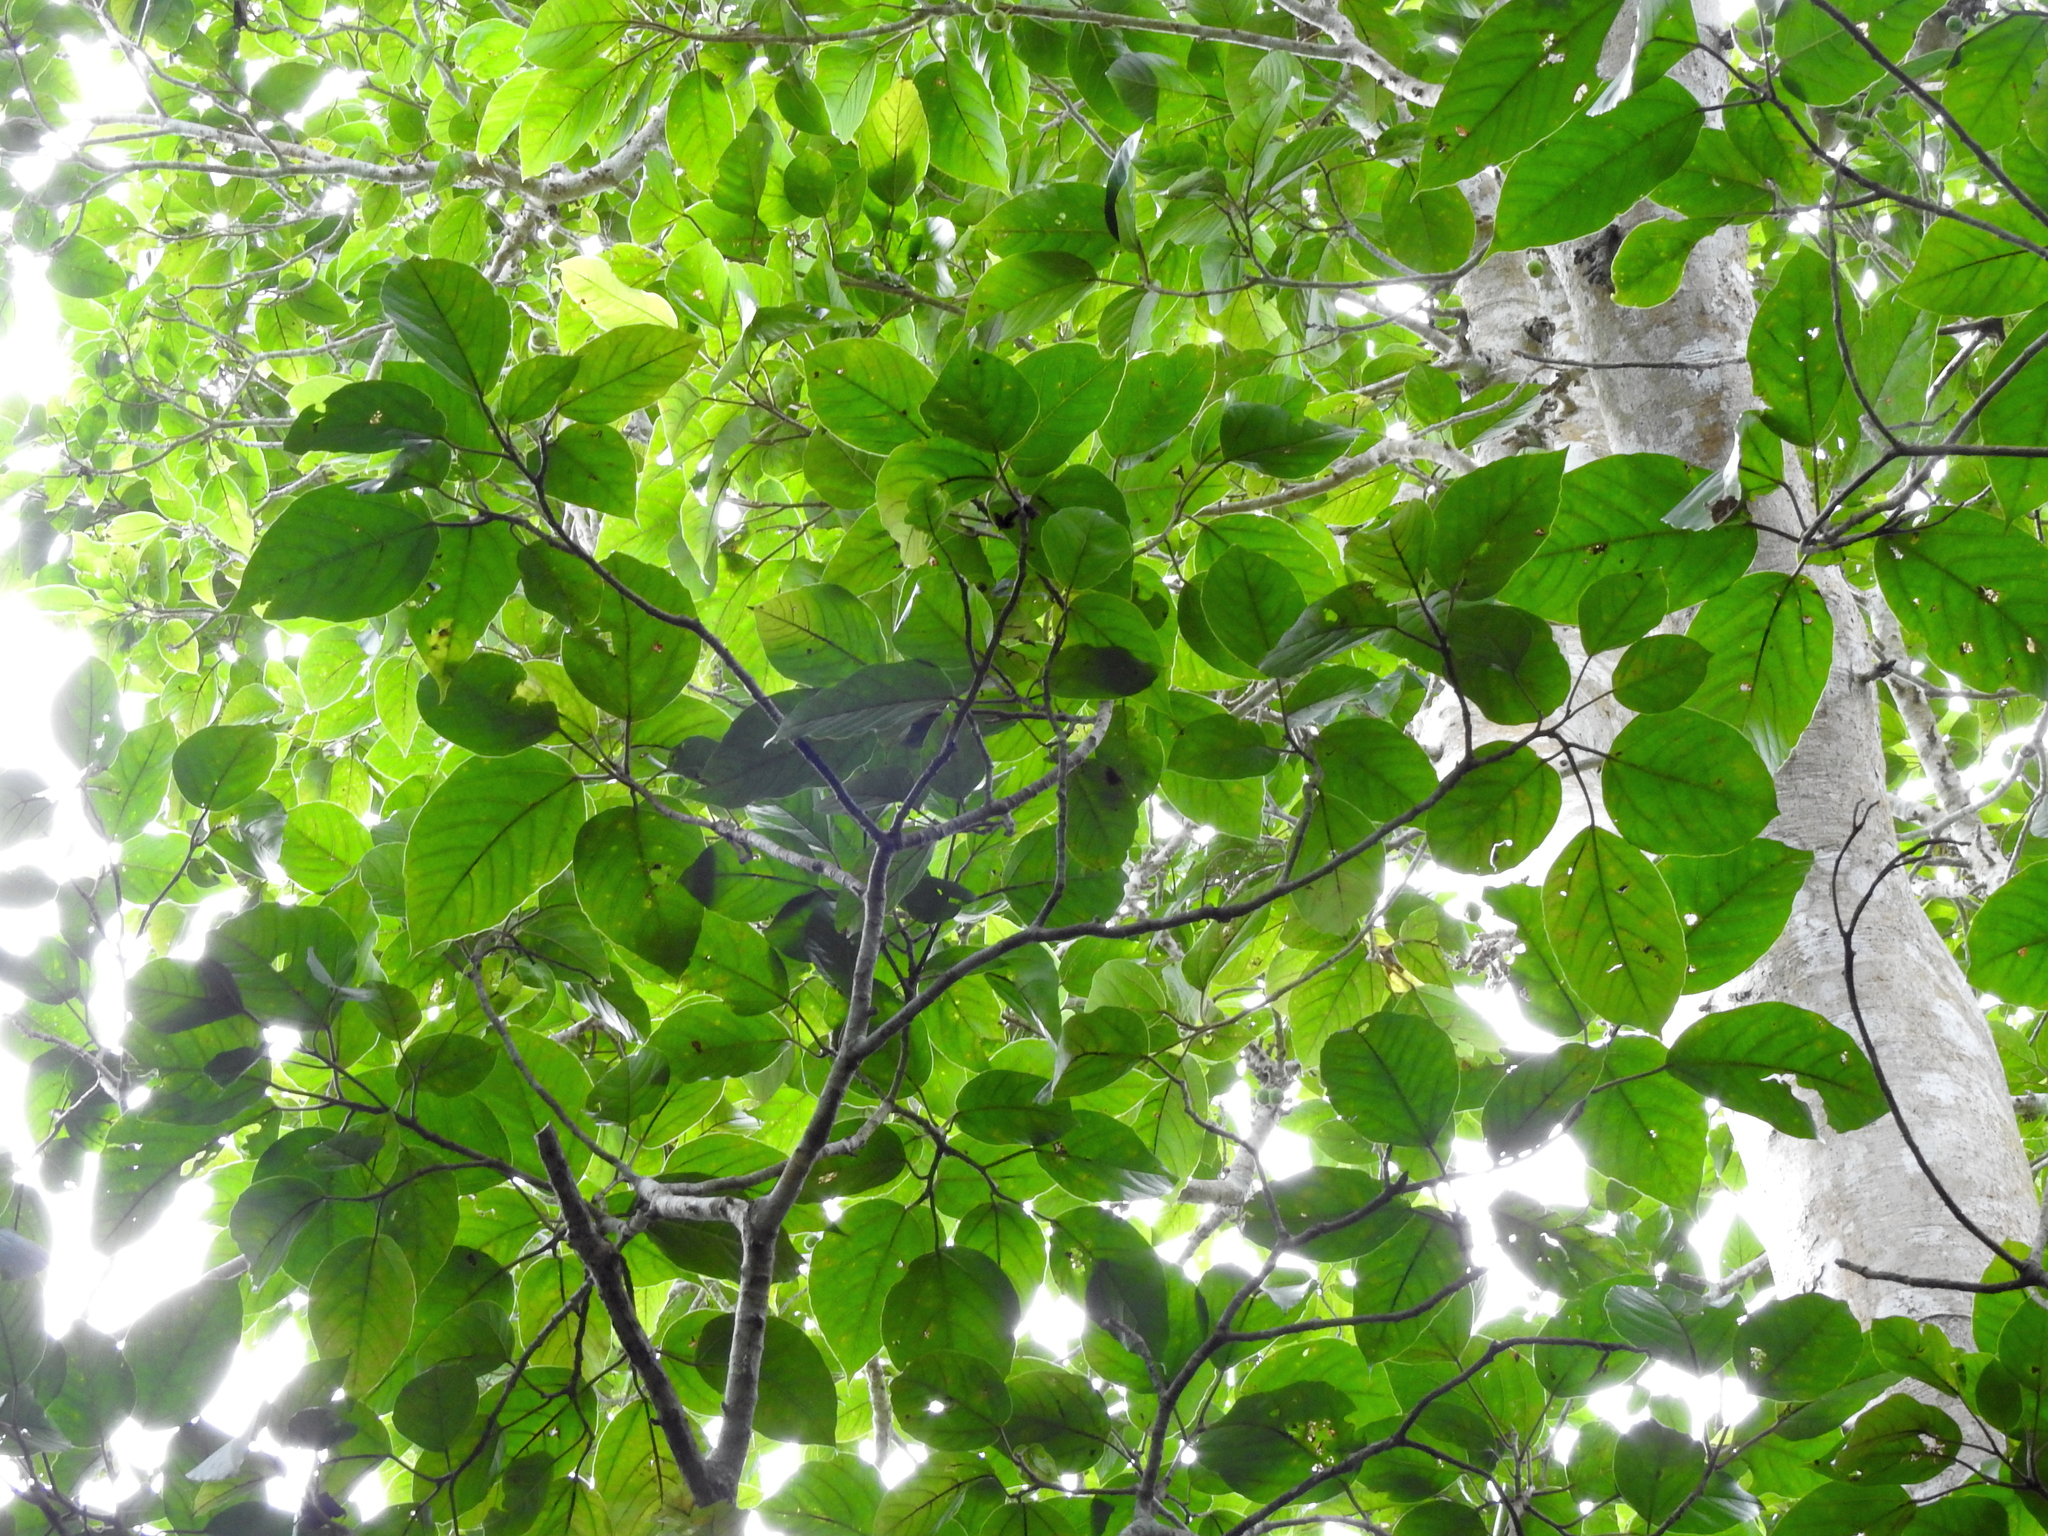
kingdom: Plantae
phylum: Tracheophyta
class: Magnoliopsida
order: Rosales
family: Moraceae
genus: Ficus
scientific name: Ficus variegata
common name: Variegated fig
